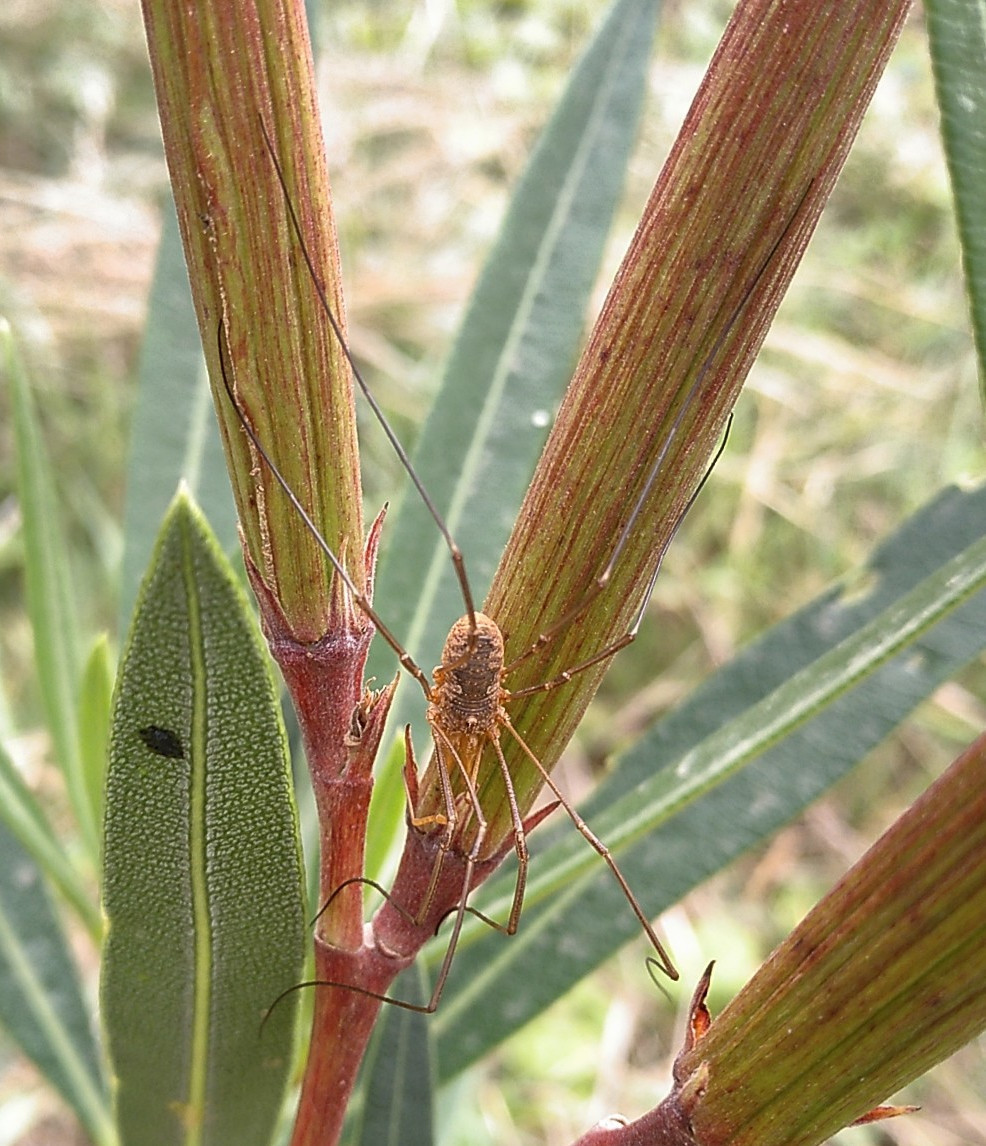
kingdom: Animalia
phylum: Arthropoda
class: Arachnida
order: Opiliones
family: Phalangiidae
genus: Phalangium
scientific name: Phalangium opilio
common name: Daddy longleg
